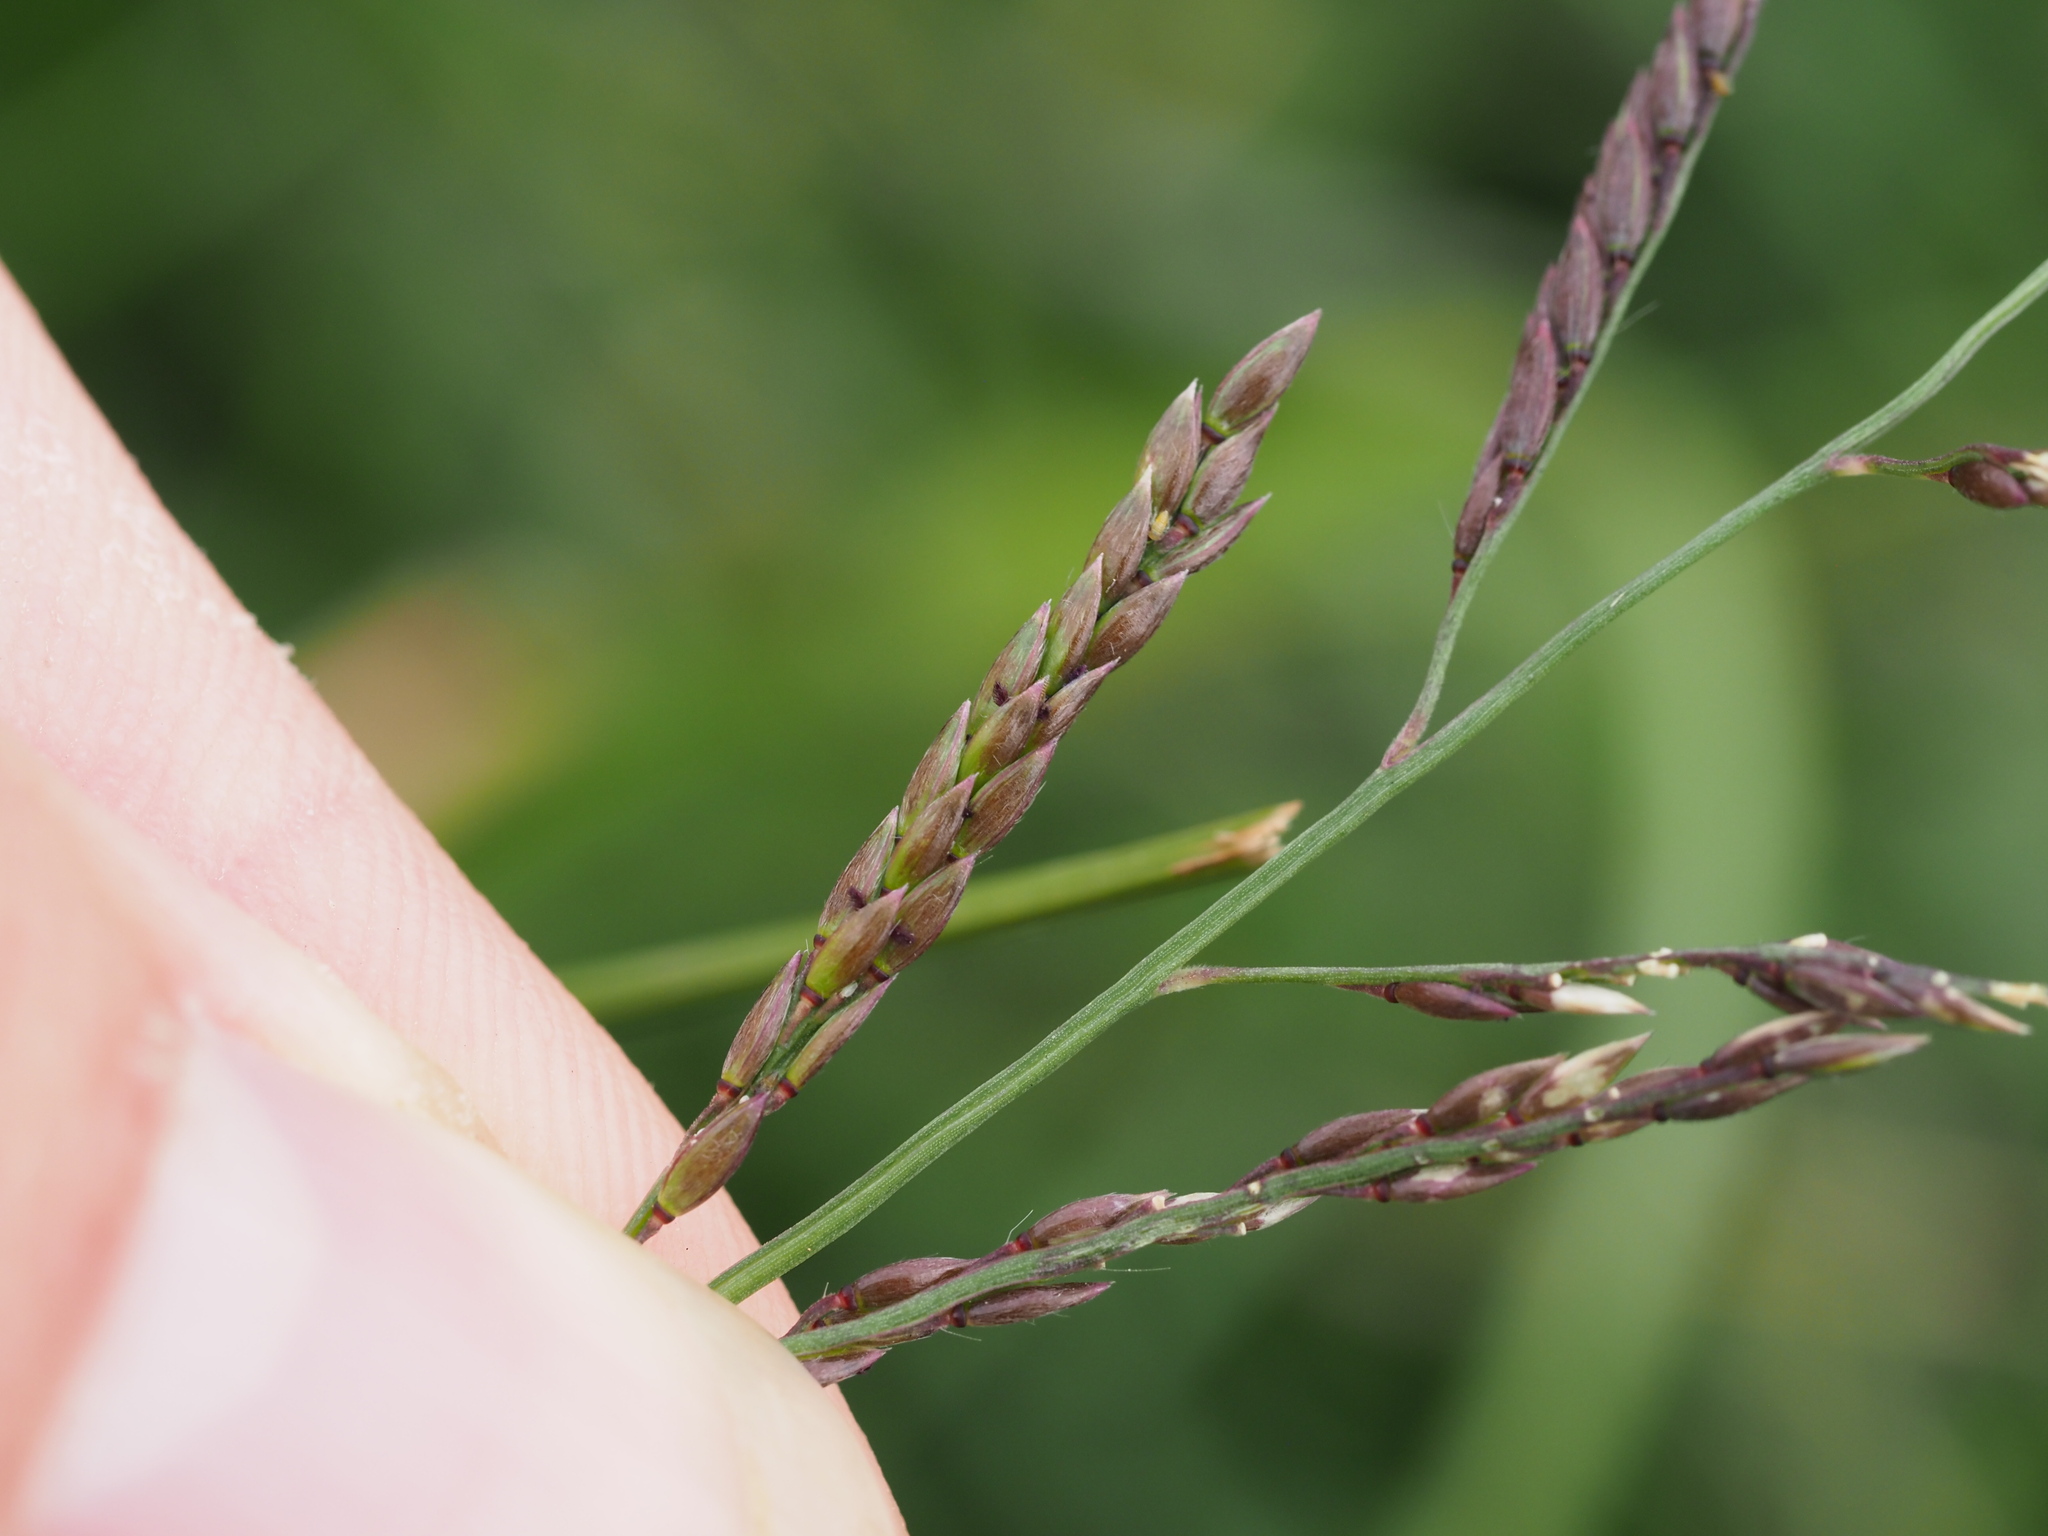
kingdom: Plantae
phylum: Tracheophyta
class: Liliopsida
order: Poales
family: Poaceae
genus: Eriochloa
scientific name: Eriochloa procera
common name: Spring grass
